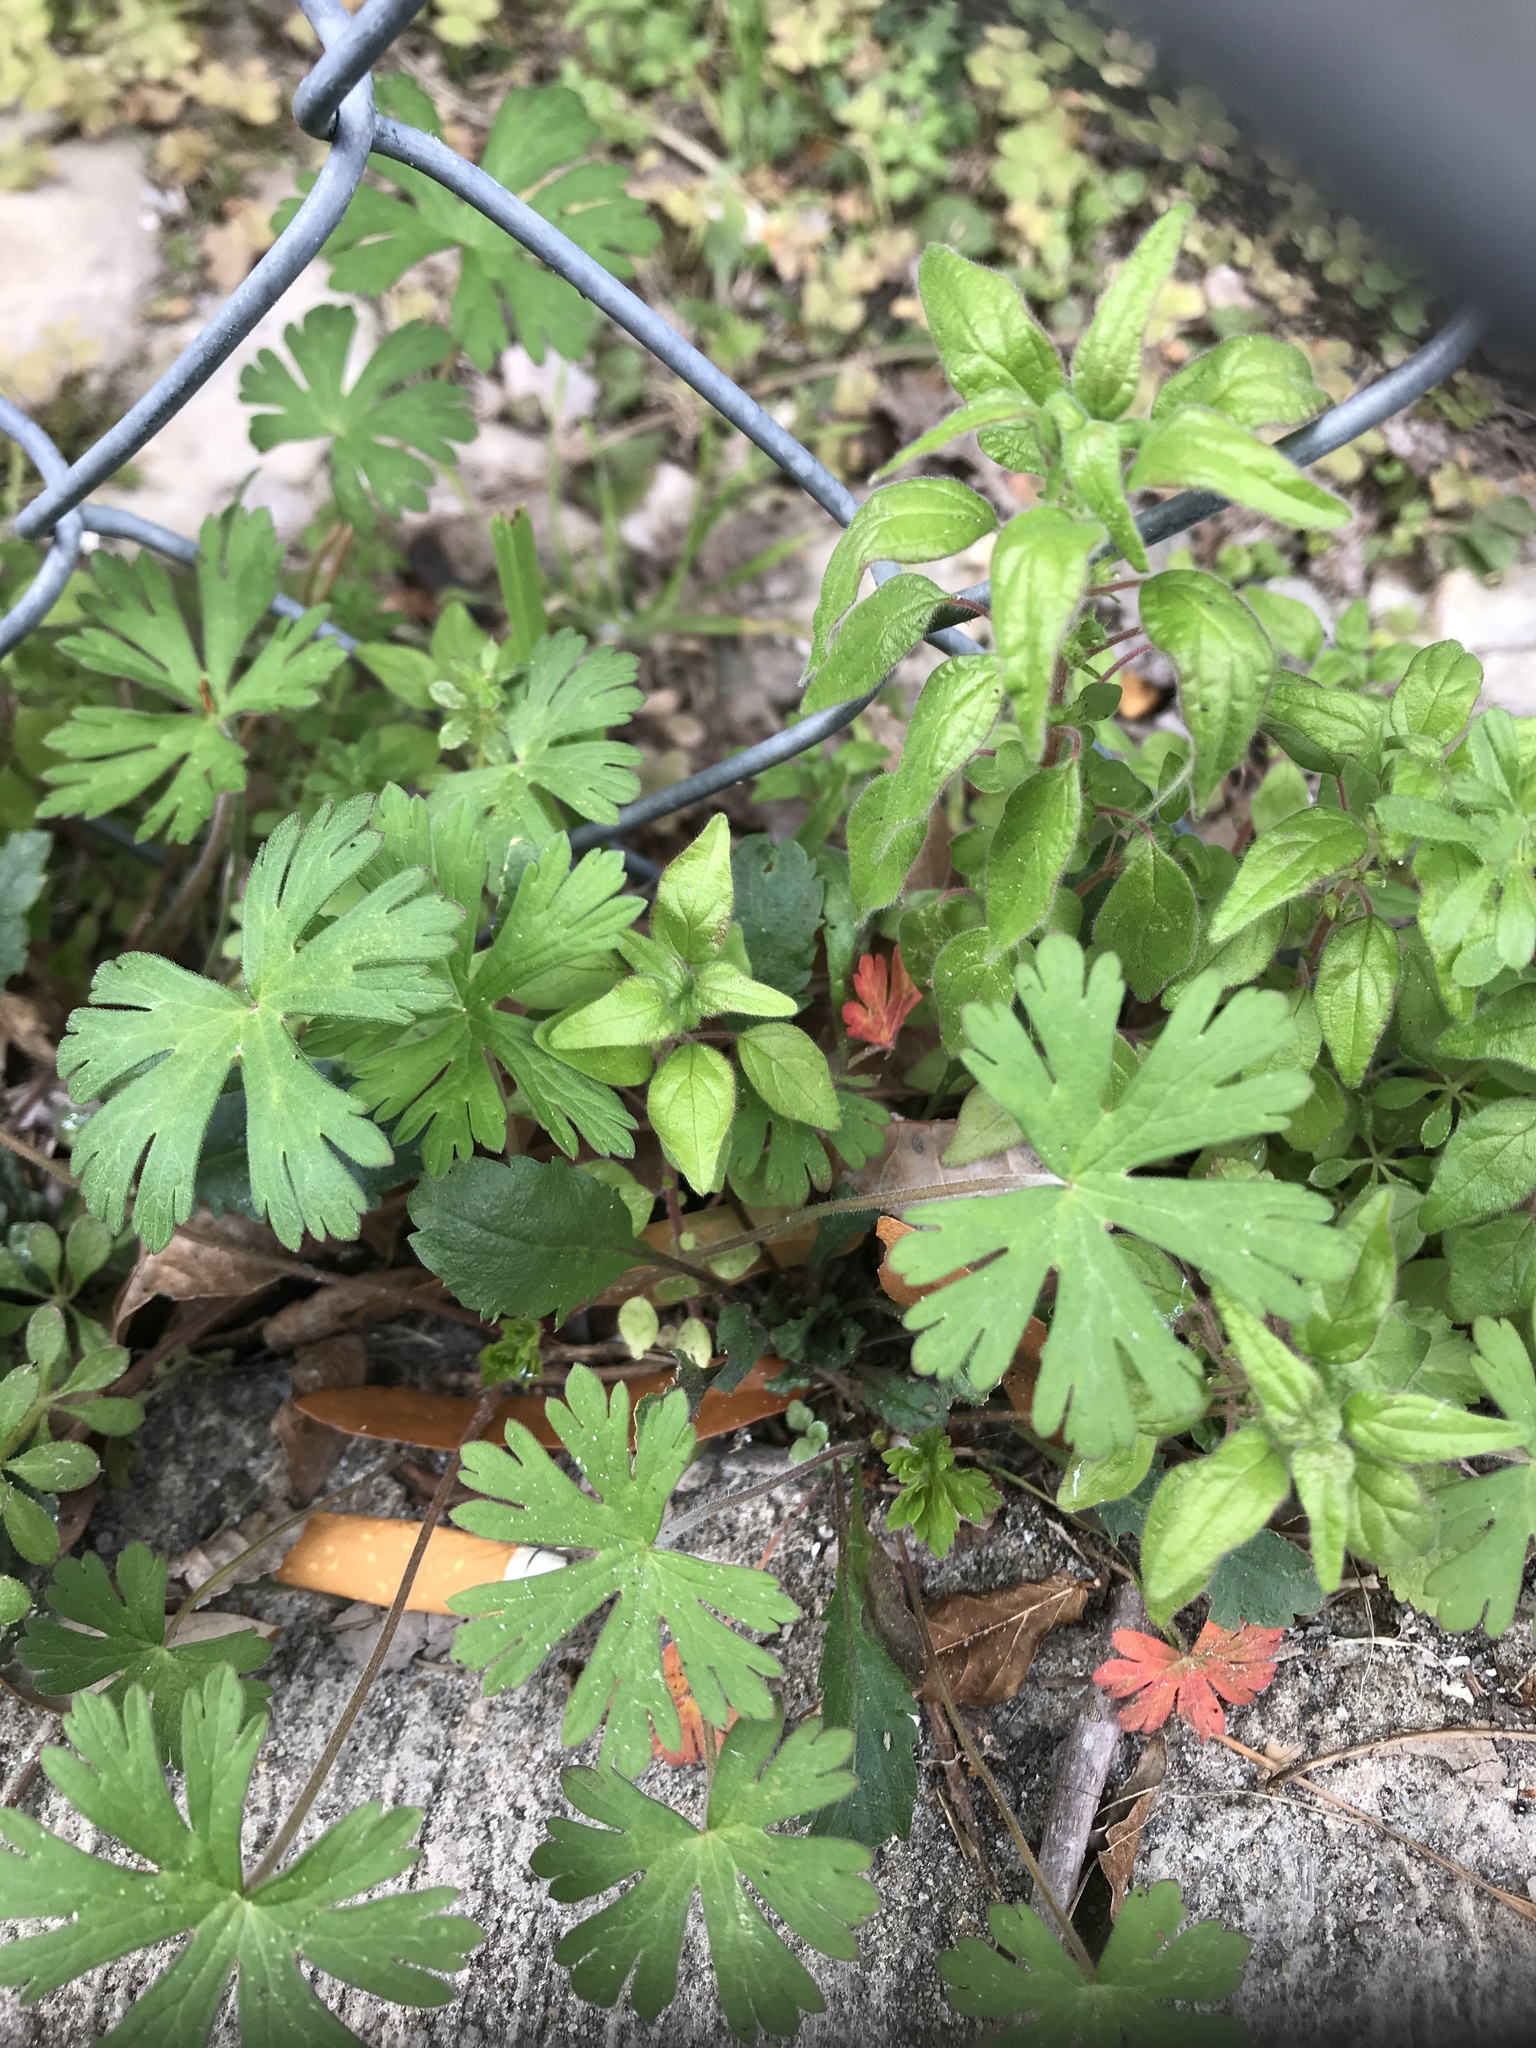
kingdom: Plantae
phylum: Tracheophyta
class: Magnoliopsida
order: Geraniales
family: Geraniaceae
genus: Geranium
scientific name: Geranium carolinianum
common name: Carolina crane's-bill
